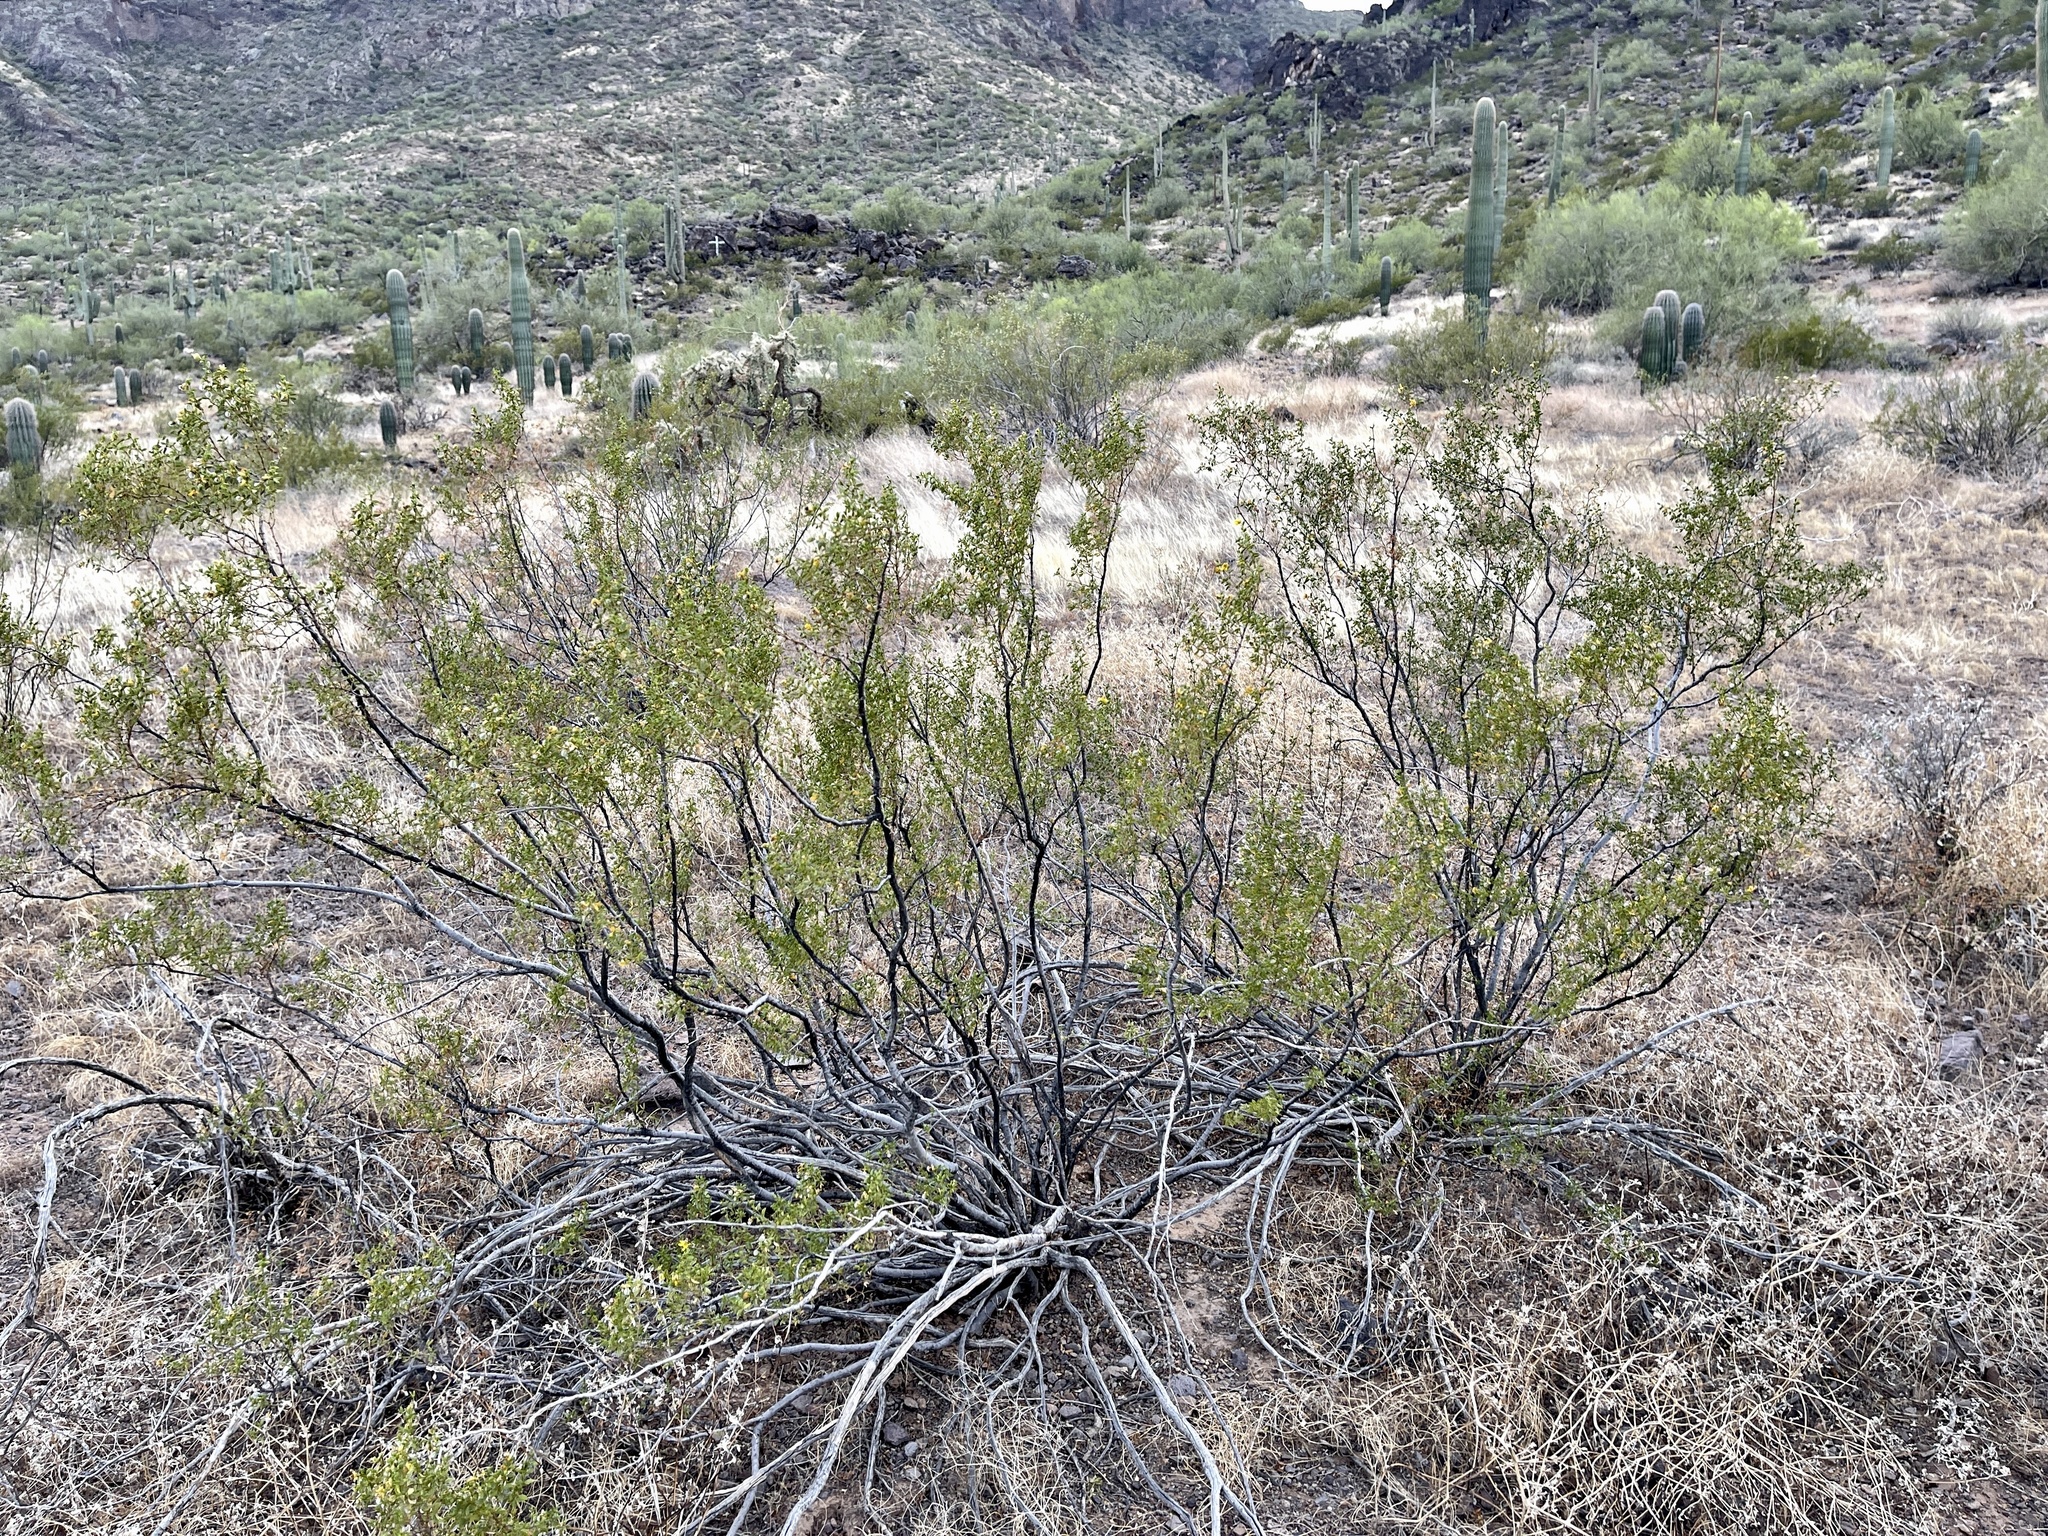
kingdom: Plantae
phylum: Tracheophyta
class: Magnoliopsida
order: Zygophyllales
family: Zygophyllaceae
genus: Larrea
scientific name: Larrea tridentata
